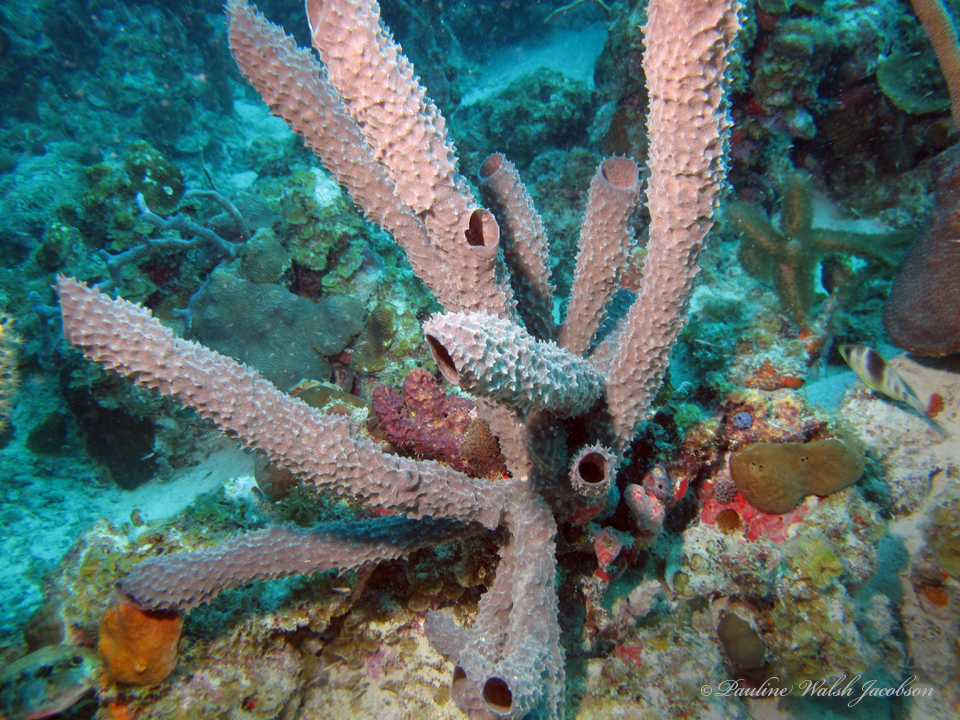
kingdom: Animalia
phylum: Porifera
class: Demospongiae
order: Haplosclerida
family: Callyspongiidae
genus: Callyspongia
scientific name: Callyspongia aculeata
